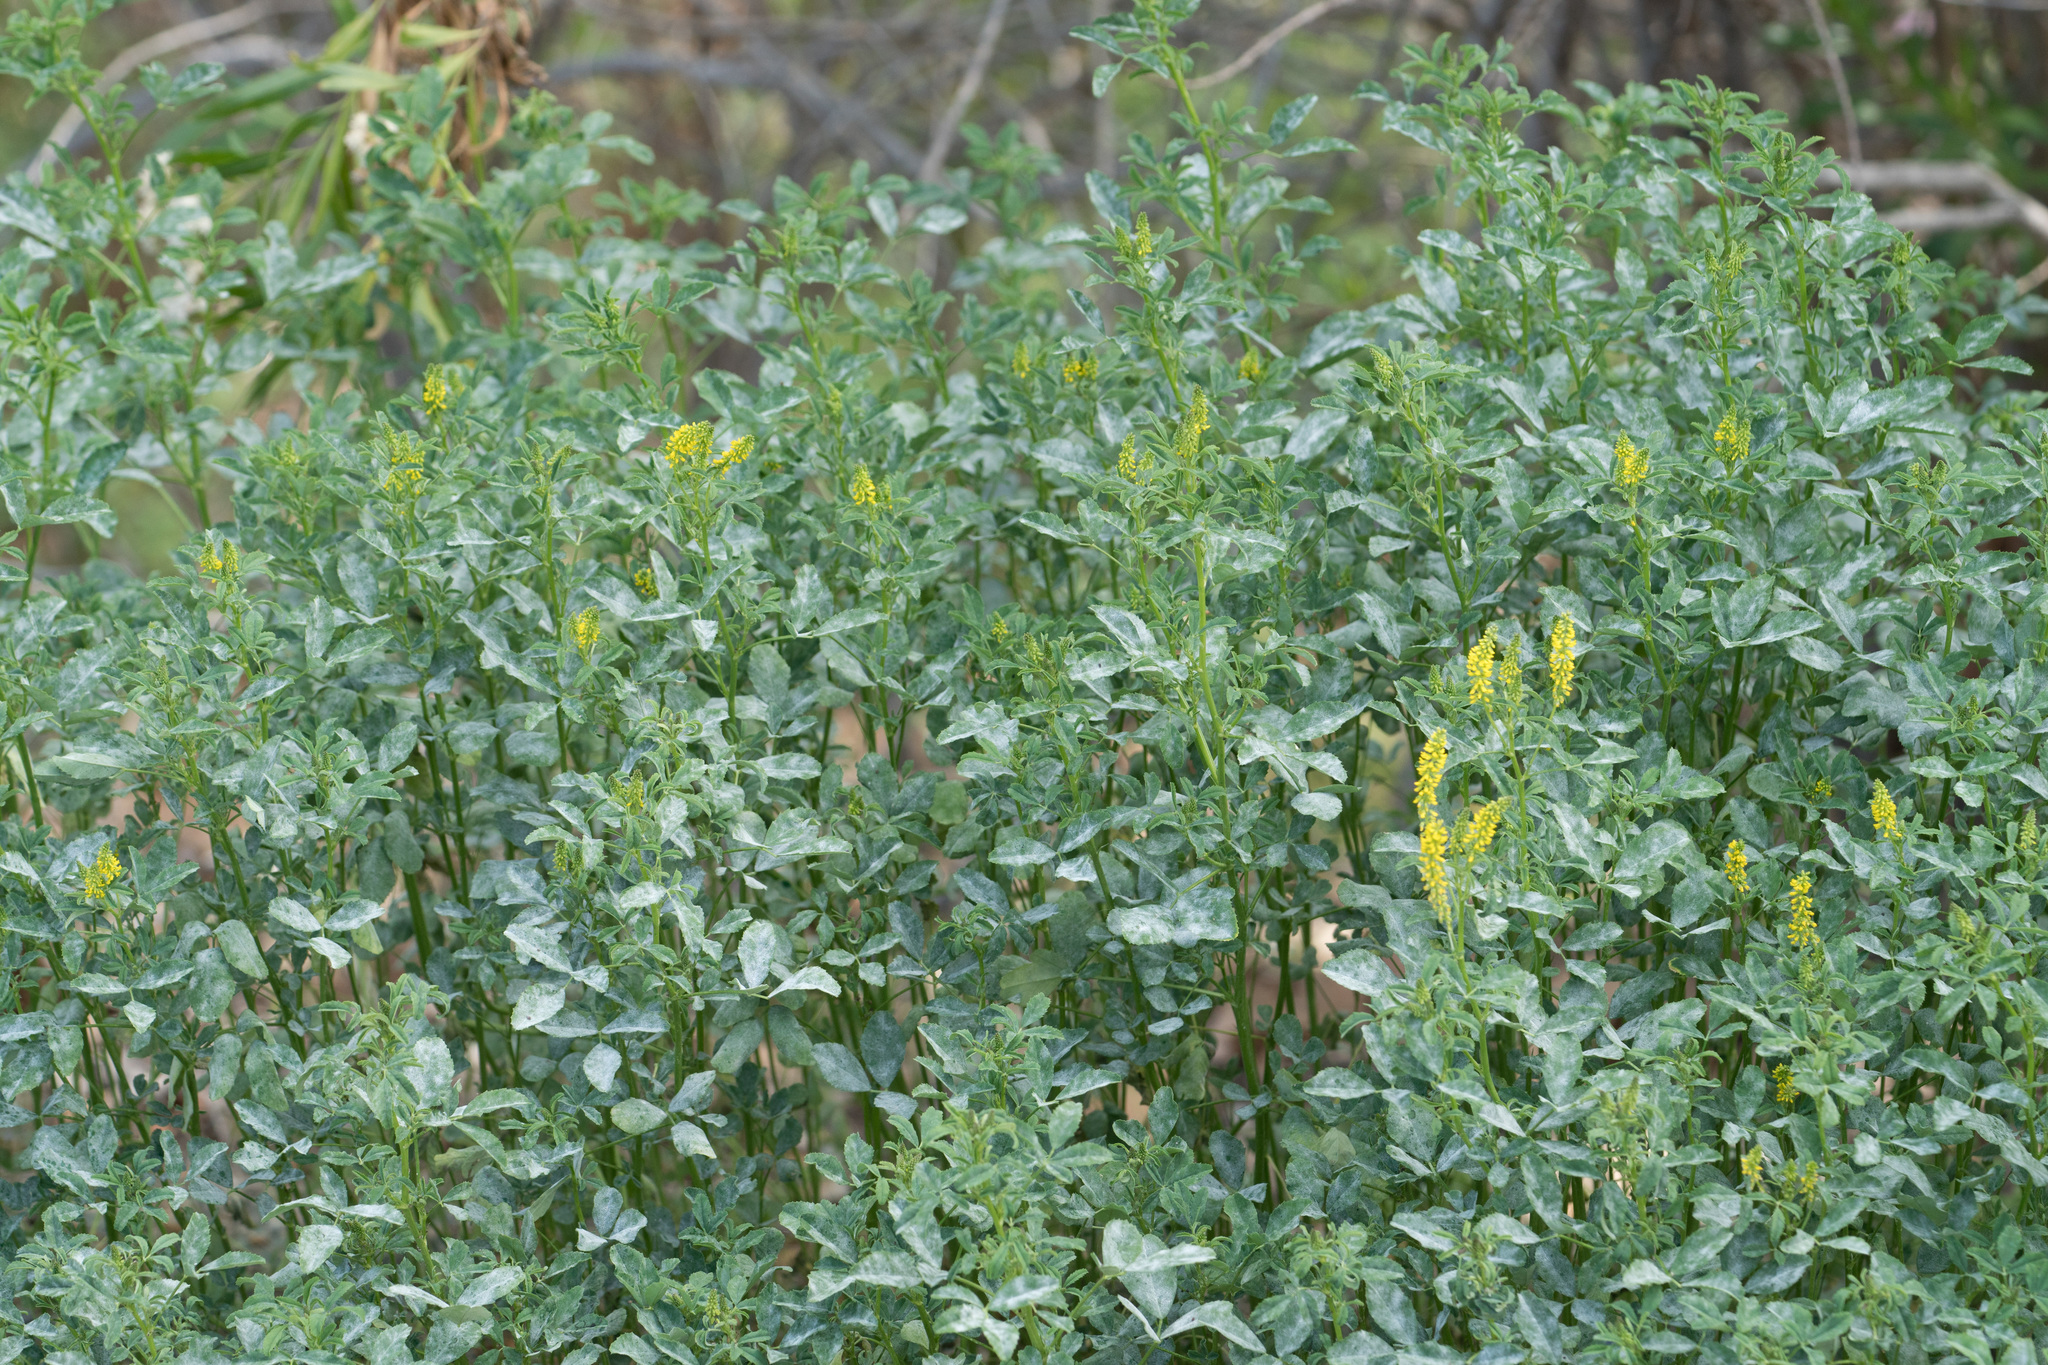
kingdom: Plantae
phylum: Tracheophyta
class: Magnoliopsida
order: Fabales
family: Fabaceae
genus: Melilotus
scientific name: Melilotus indicus
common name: Small melilot
